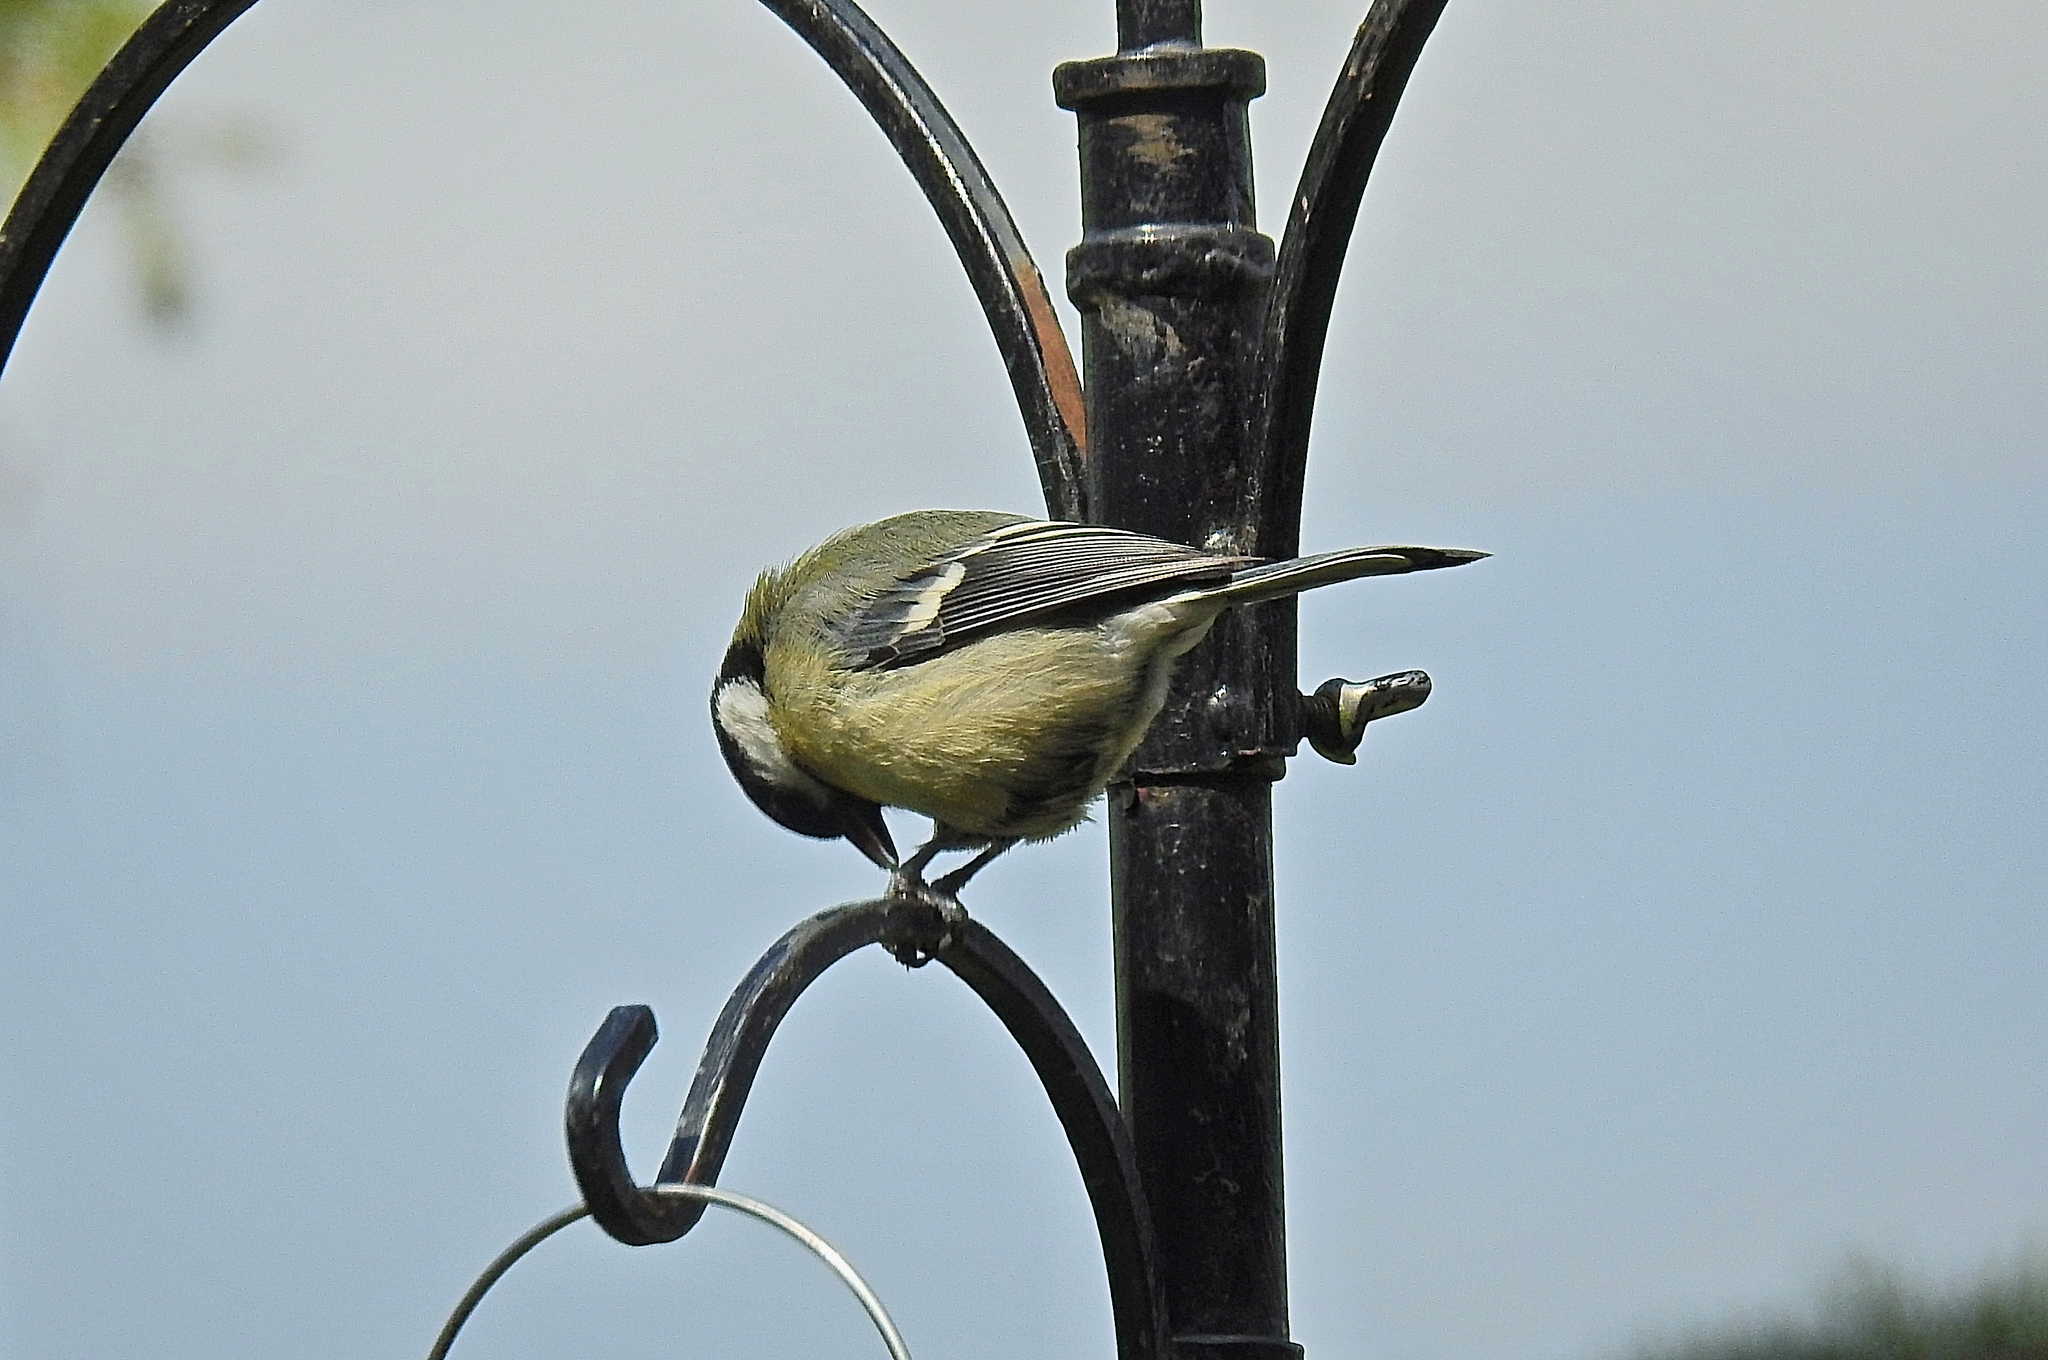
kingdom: Animalia
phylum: Chordata
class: Aves
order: Passeriformes
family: Paridae
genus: Parus
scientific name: Parus major
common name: Great tit
